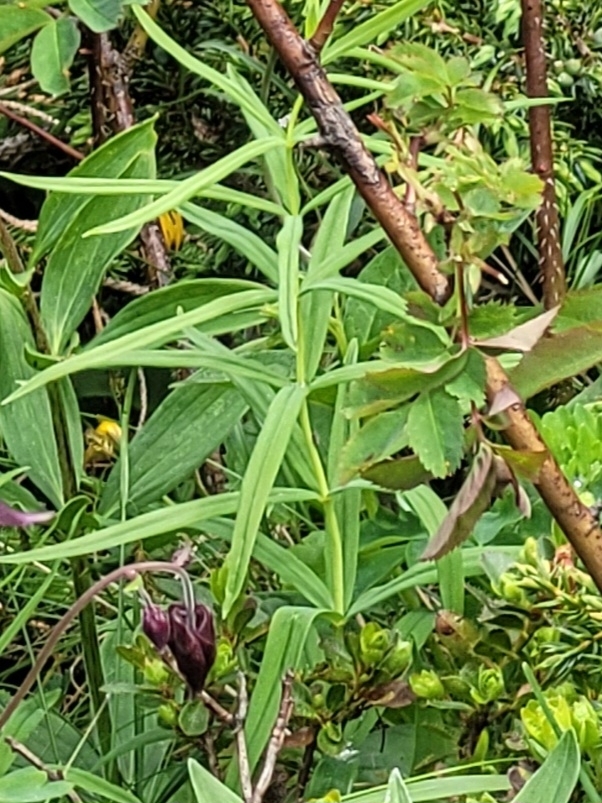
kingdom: Plantae
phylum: Tracheophyta
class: Liliopsida
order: Asparagales
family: Asparagaceae
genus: Polygonatum
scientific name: Polygonatum verticillatum
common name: Whorled solomon's-seal
